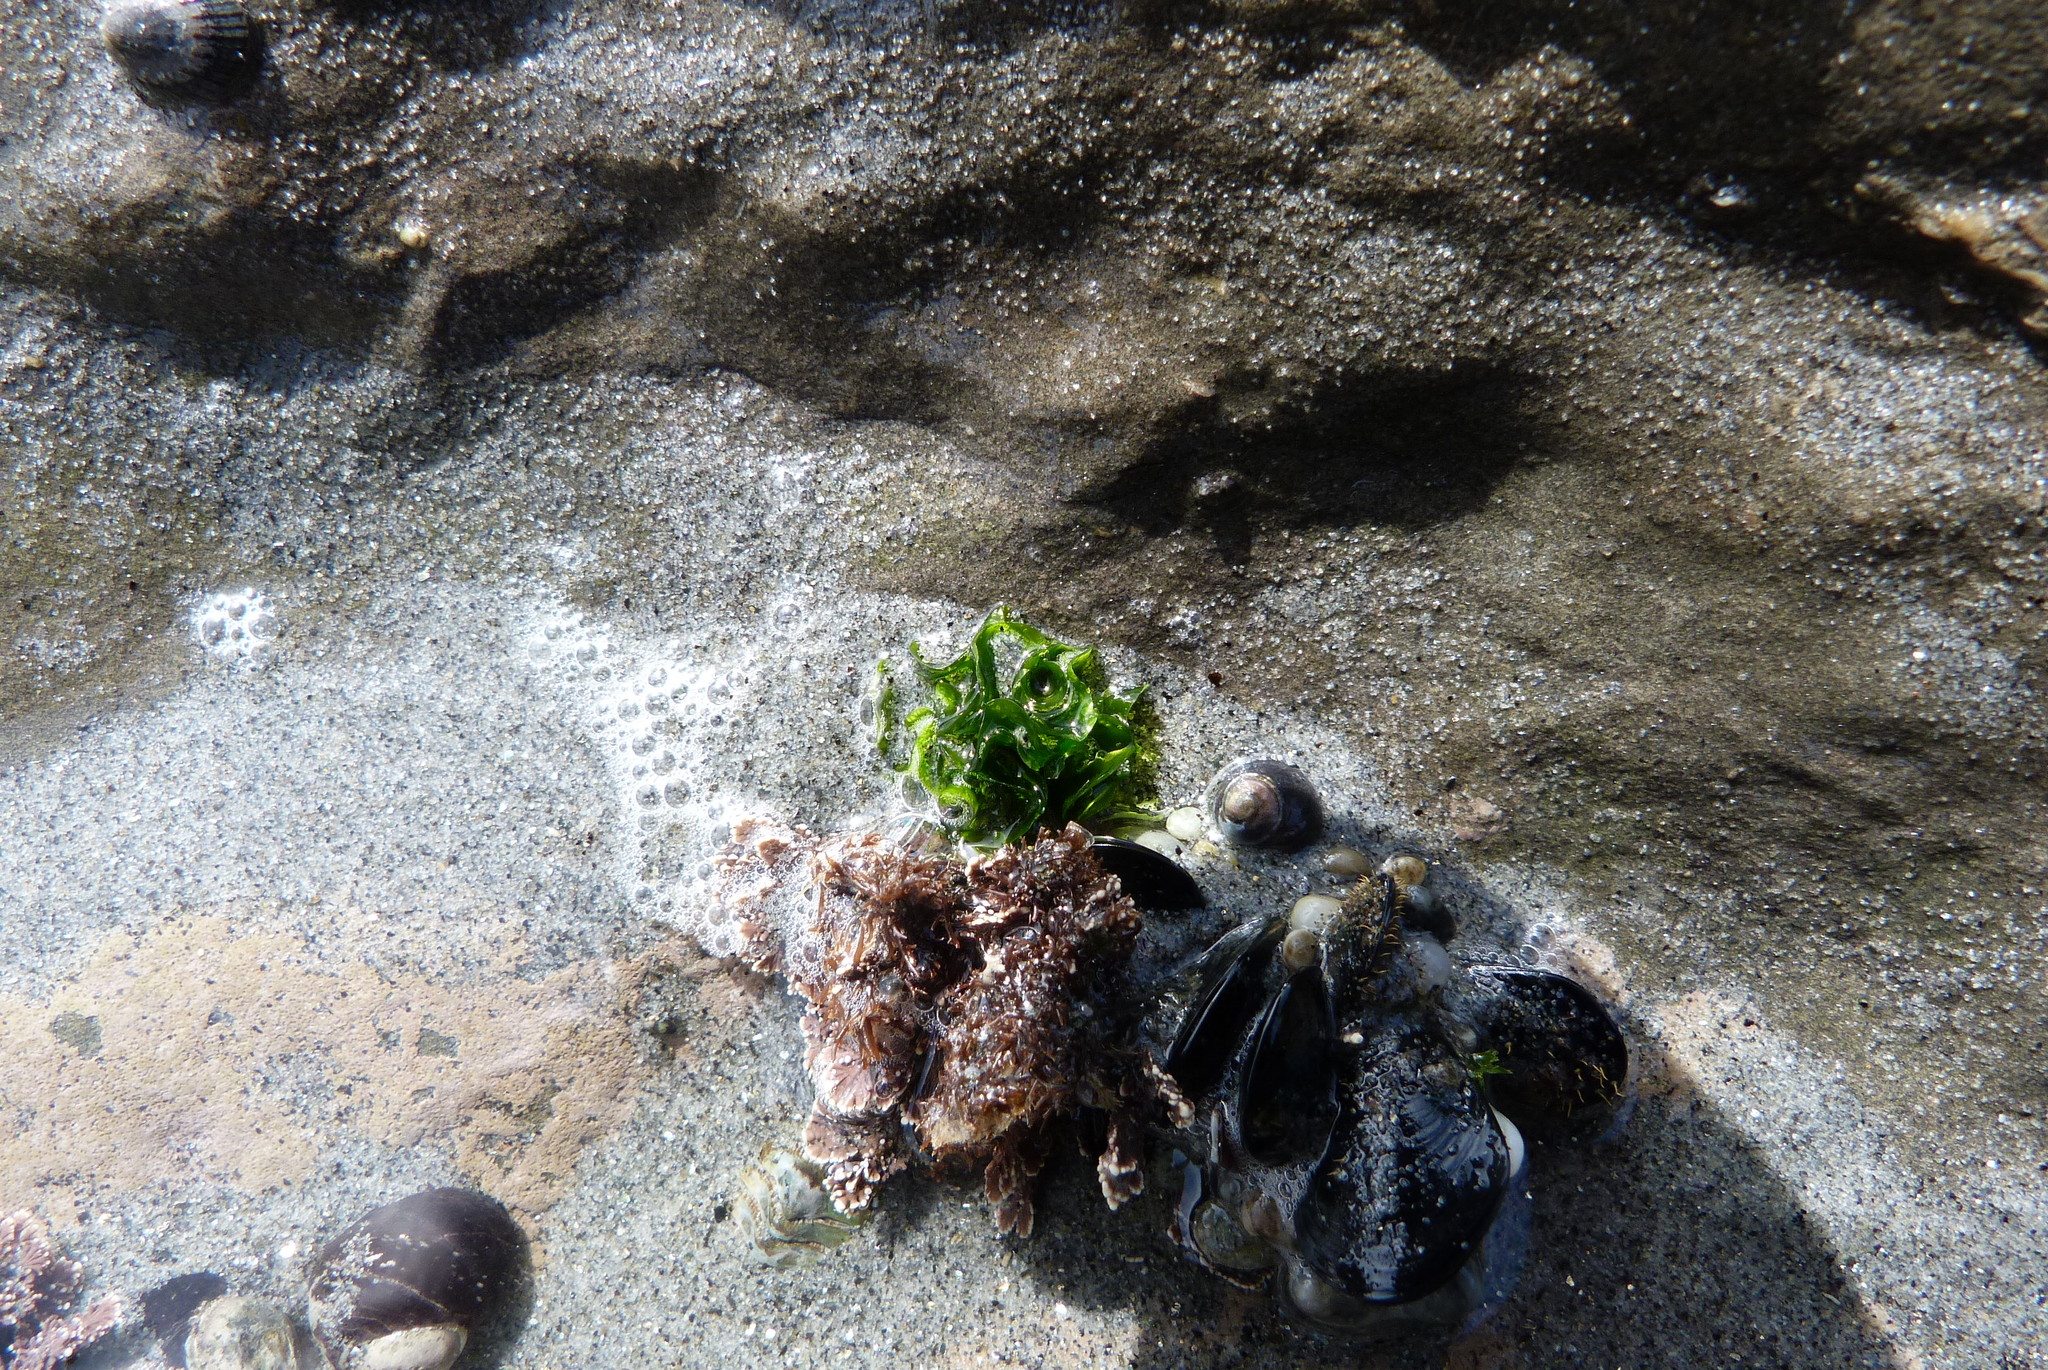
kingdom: Plantae
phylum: Chlorophyta
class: Ulvophyceae
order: Ulvales
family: Ulvaceae
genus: Ulva
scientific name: Ulva
